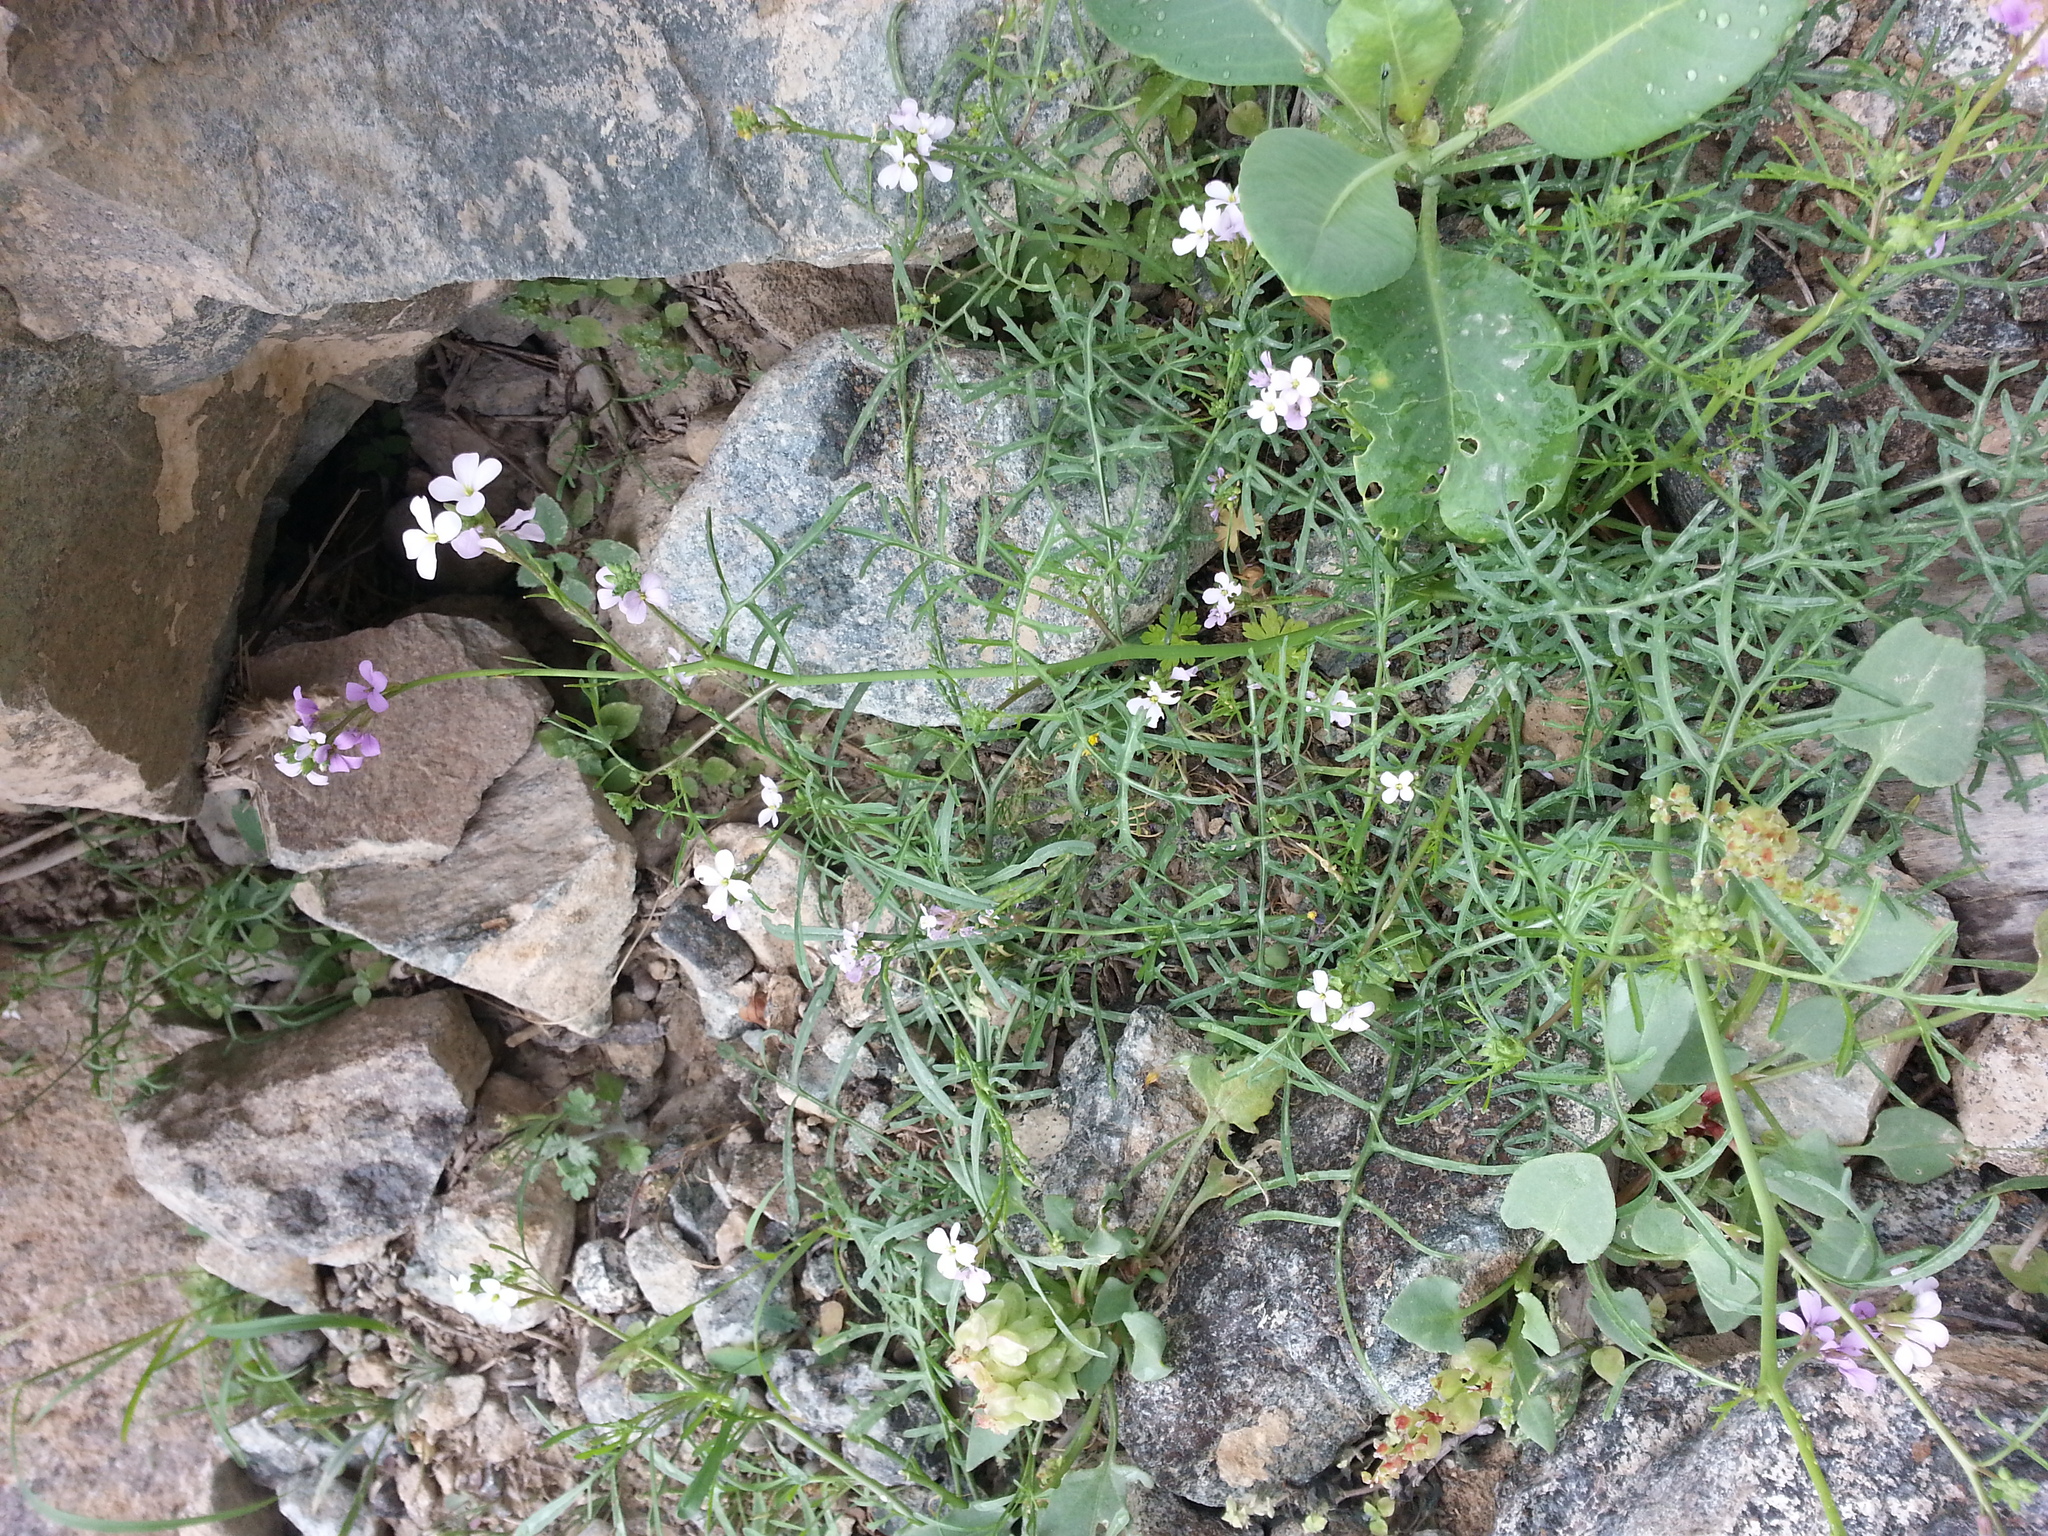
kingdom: Plantae
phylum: Tracheophyta
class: Magnoliopsida
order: Brassicales
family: Brassicaceae
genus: Erucaria
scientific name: Erucaria hispanica
